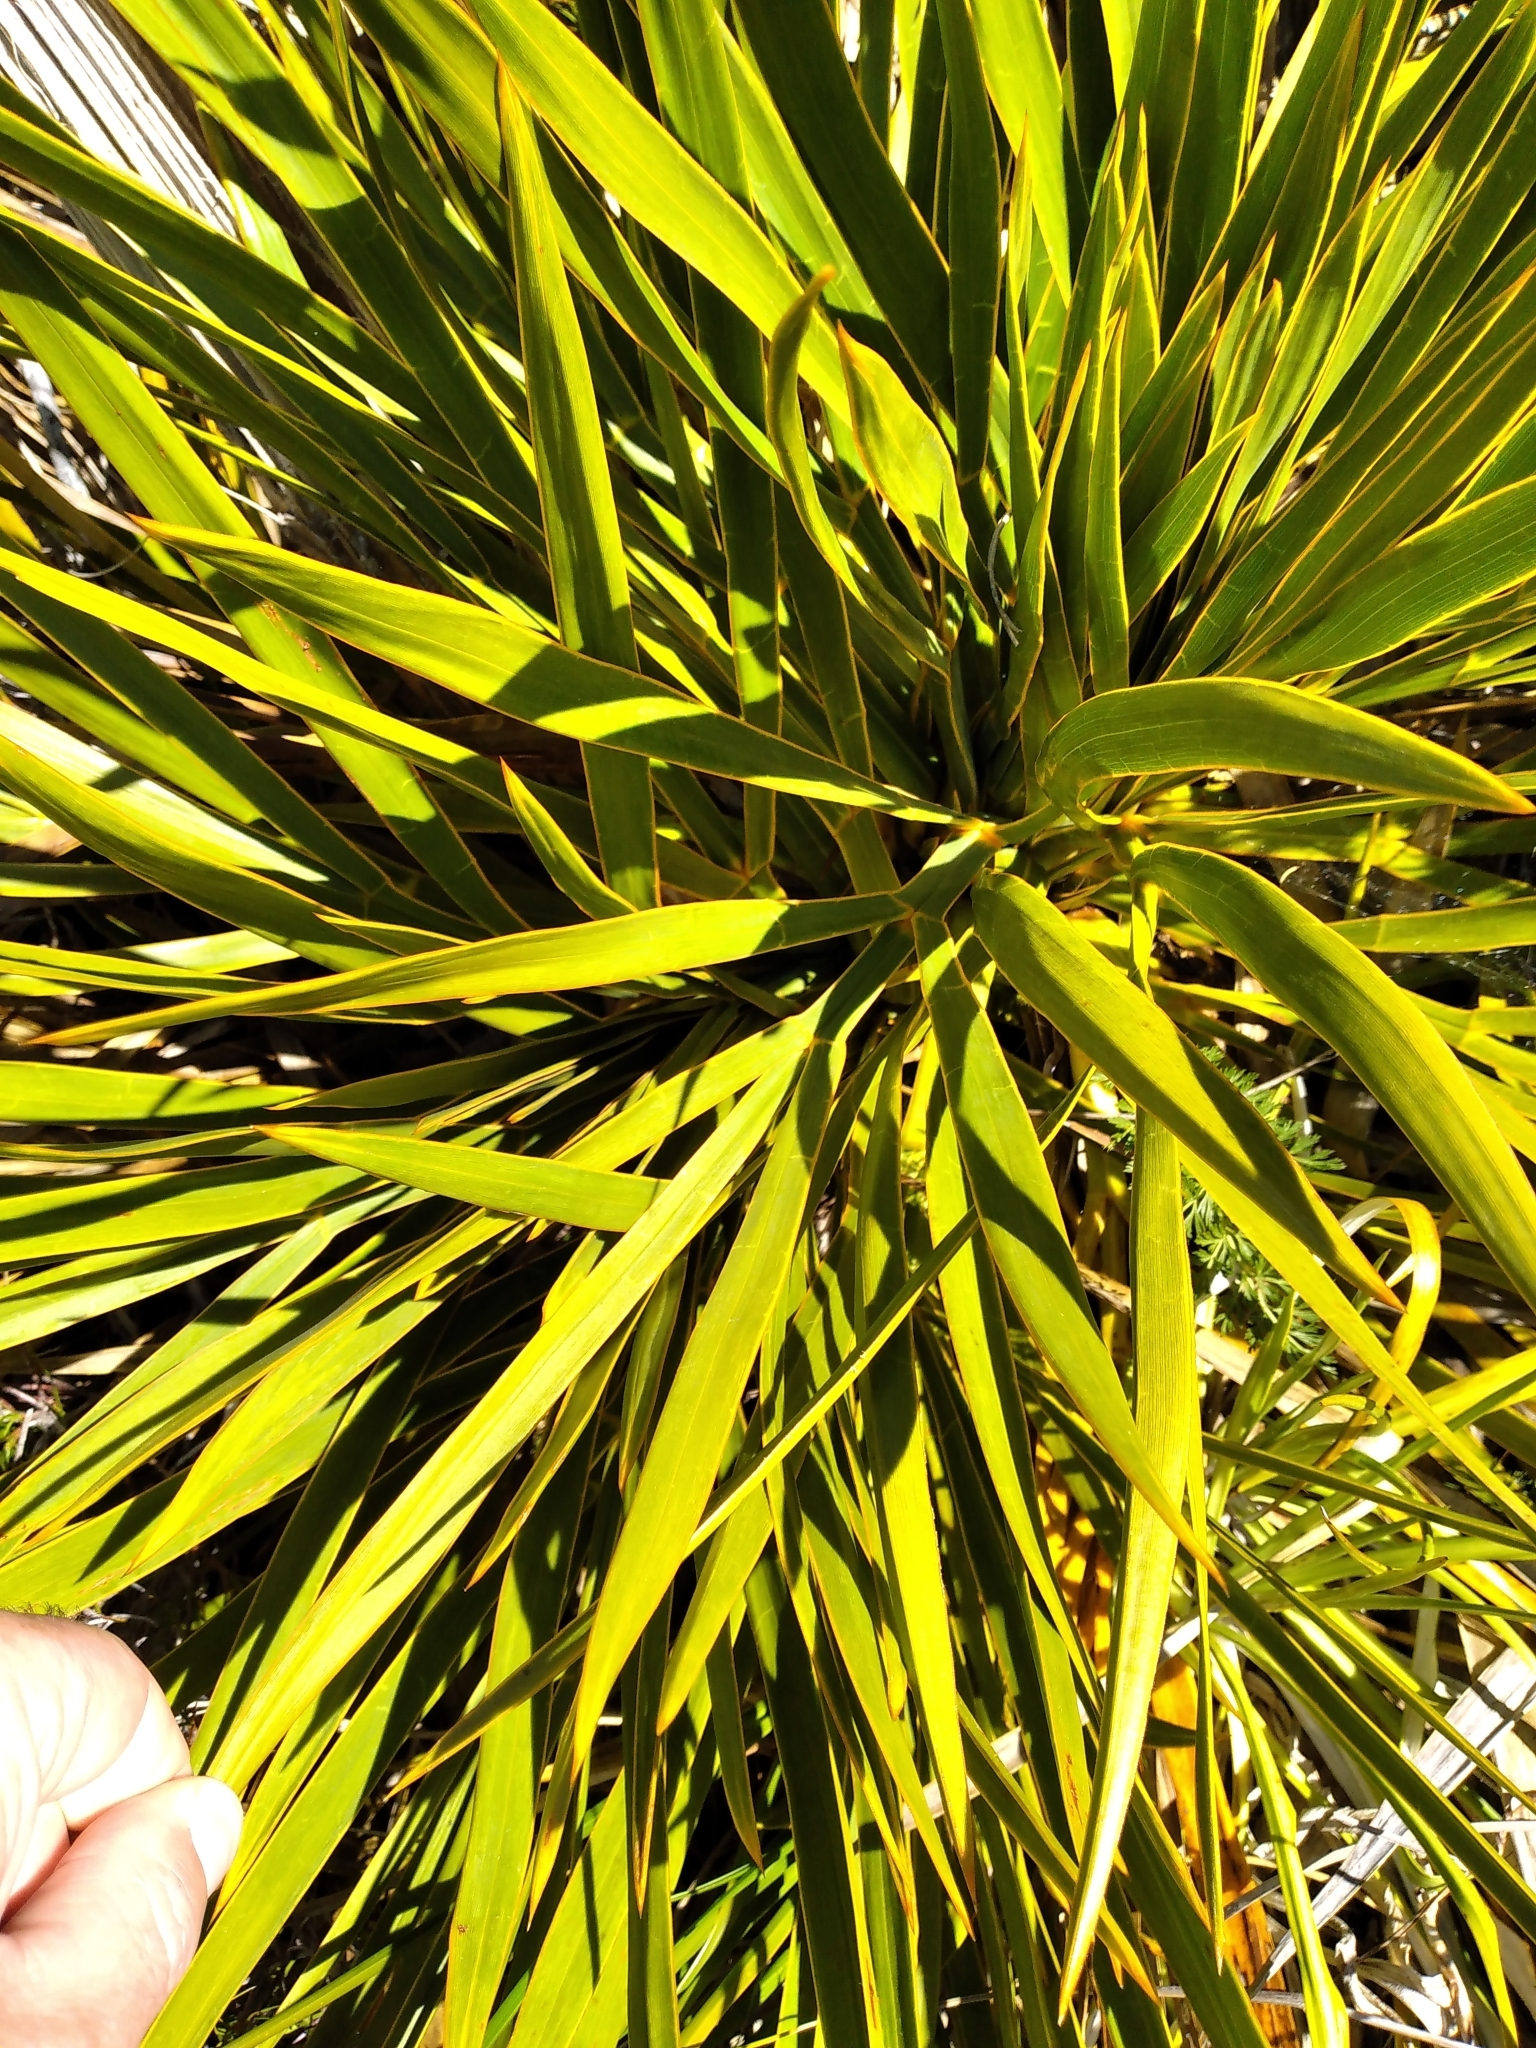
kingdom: Plantae
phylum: Tracheophyta
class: Magnoliopsida
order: Apiales
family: Apiaceae
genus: Aciphylla
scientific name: Aciphylla horrida
